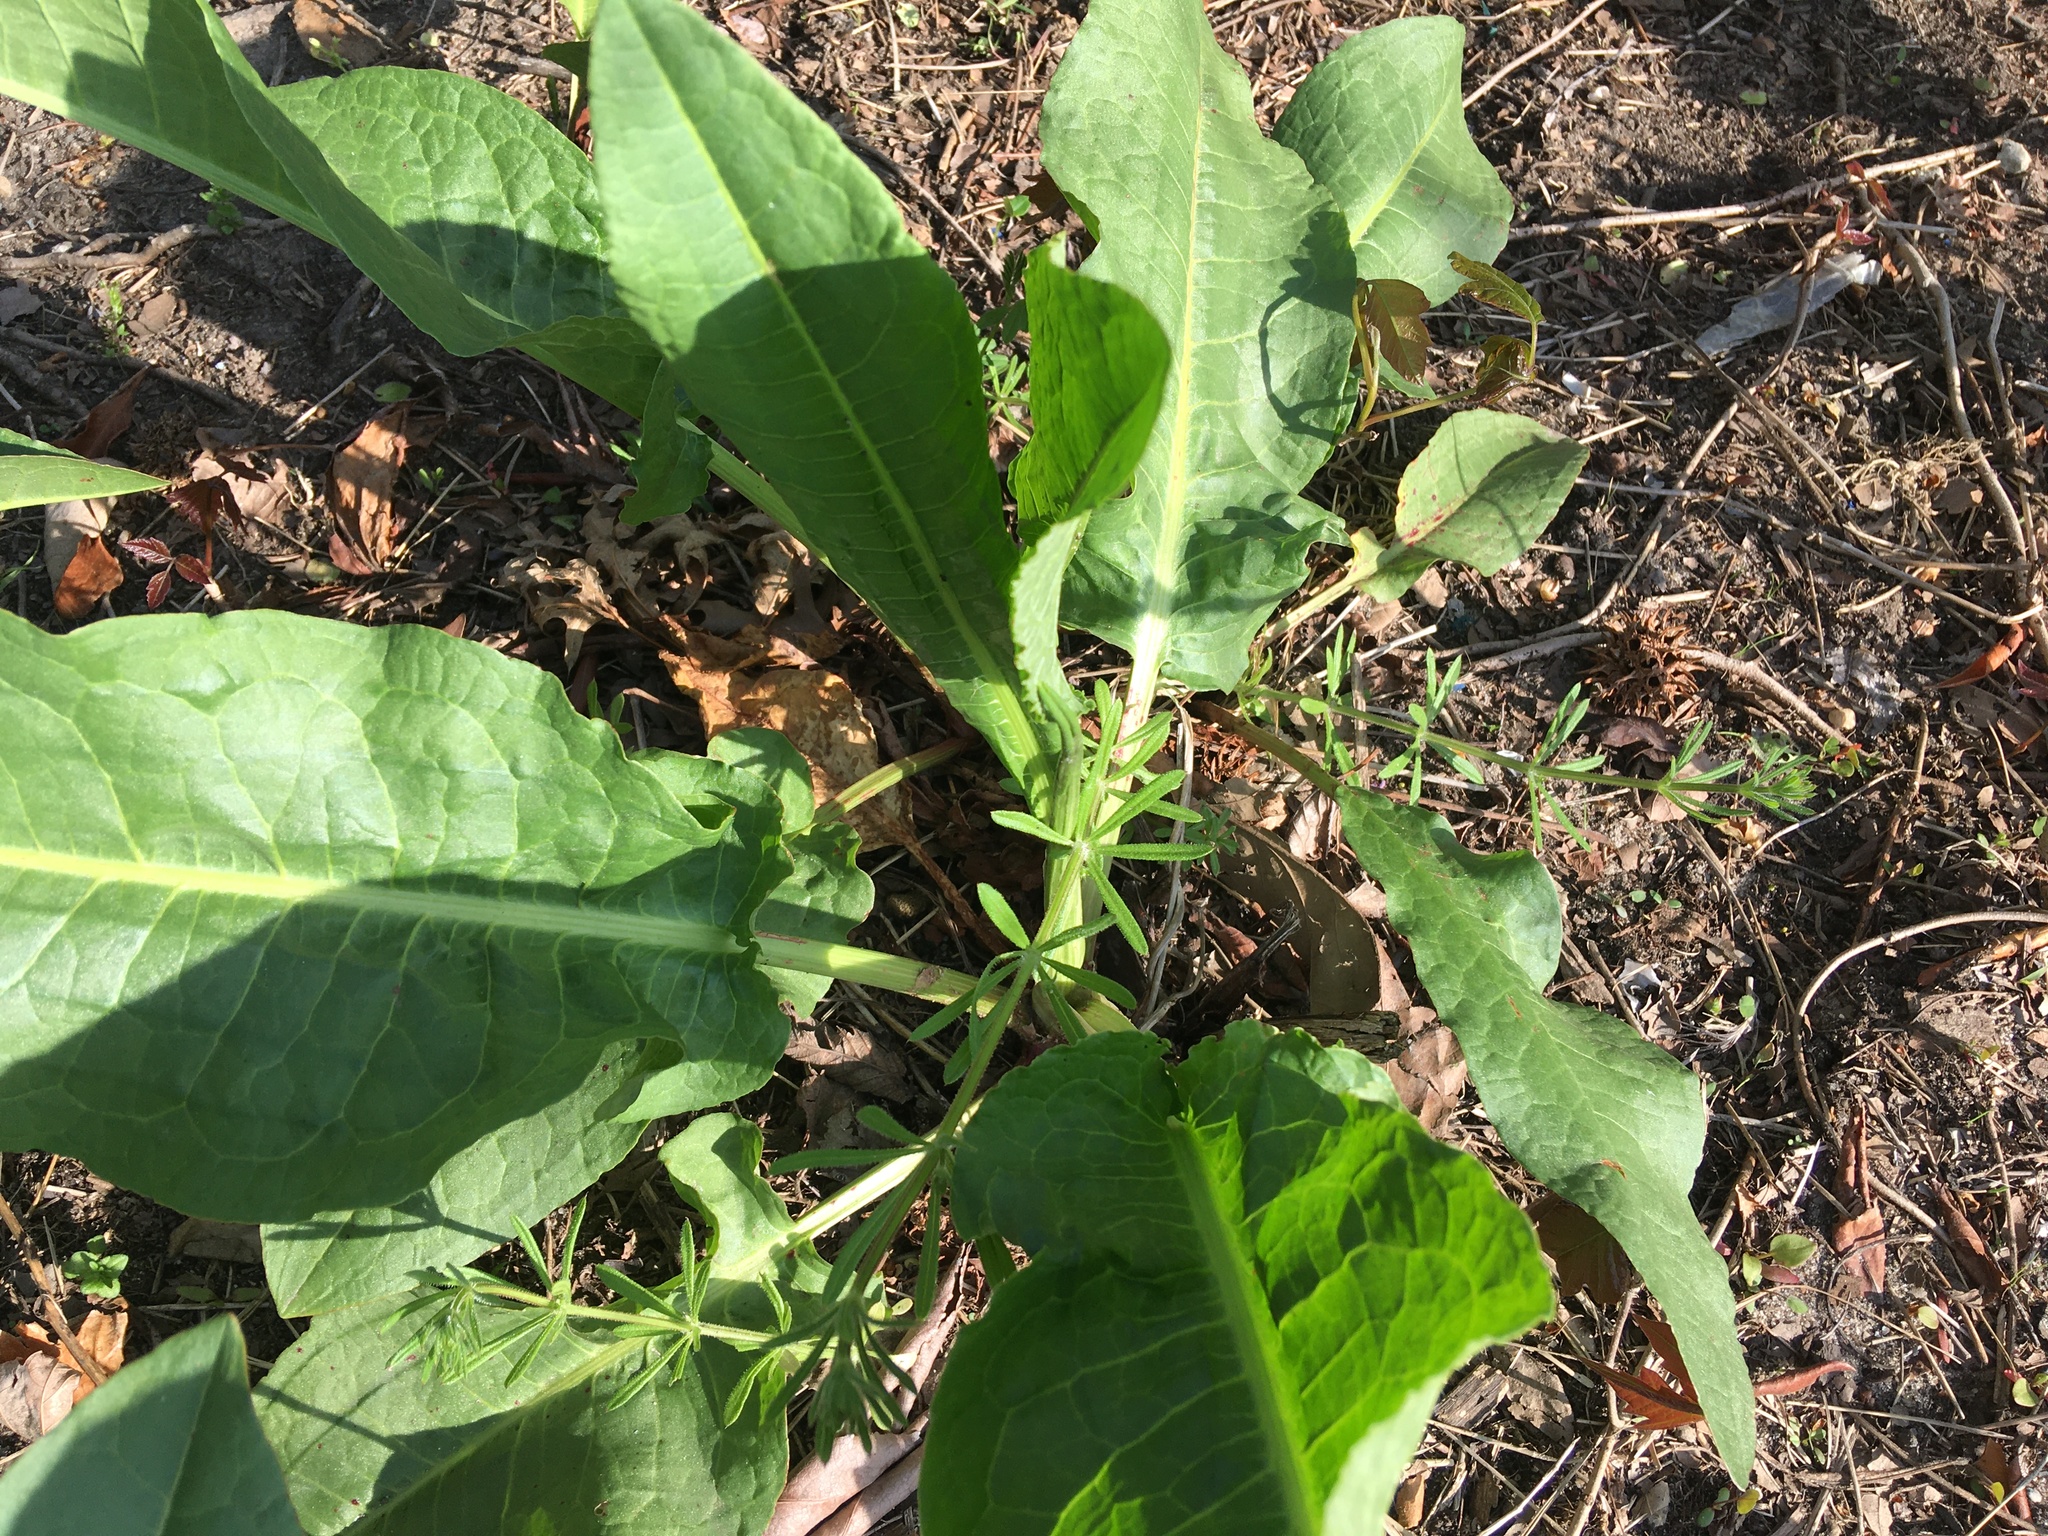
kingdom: Plantae
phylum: Tracheophyta
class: Magnoliopsida
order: Caryophyllales
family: Polygonaceae
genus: Rumex
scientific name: Rumex obtusifolius
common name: Bitter dock
